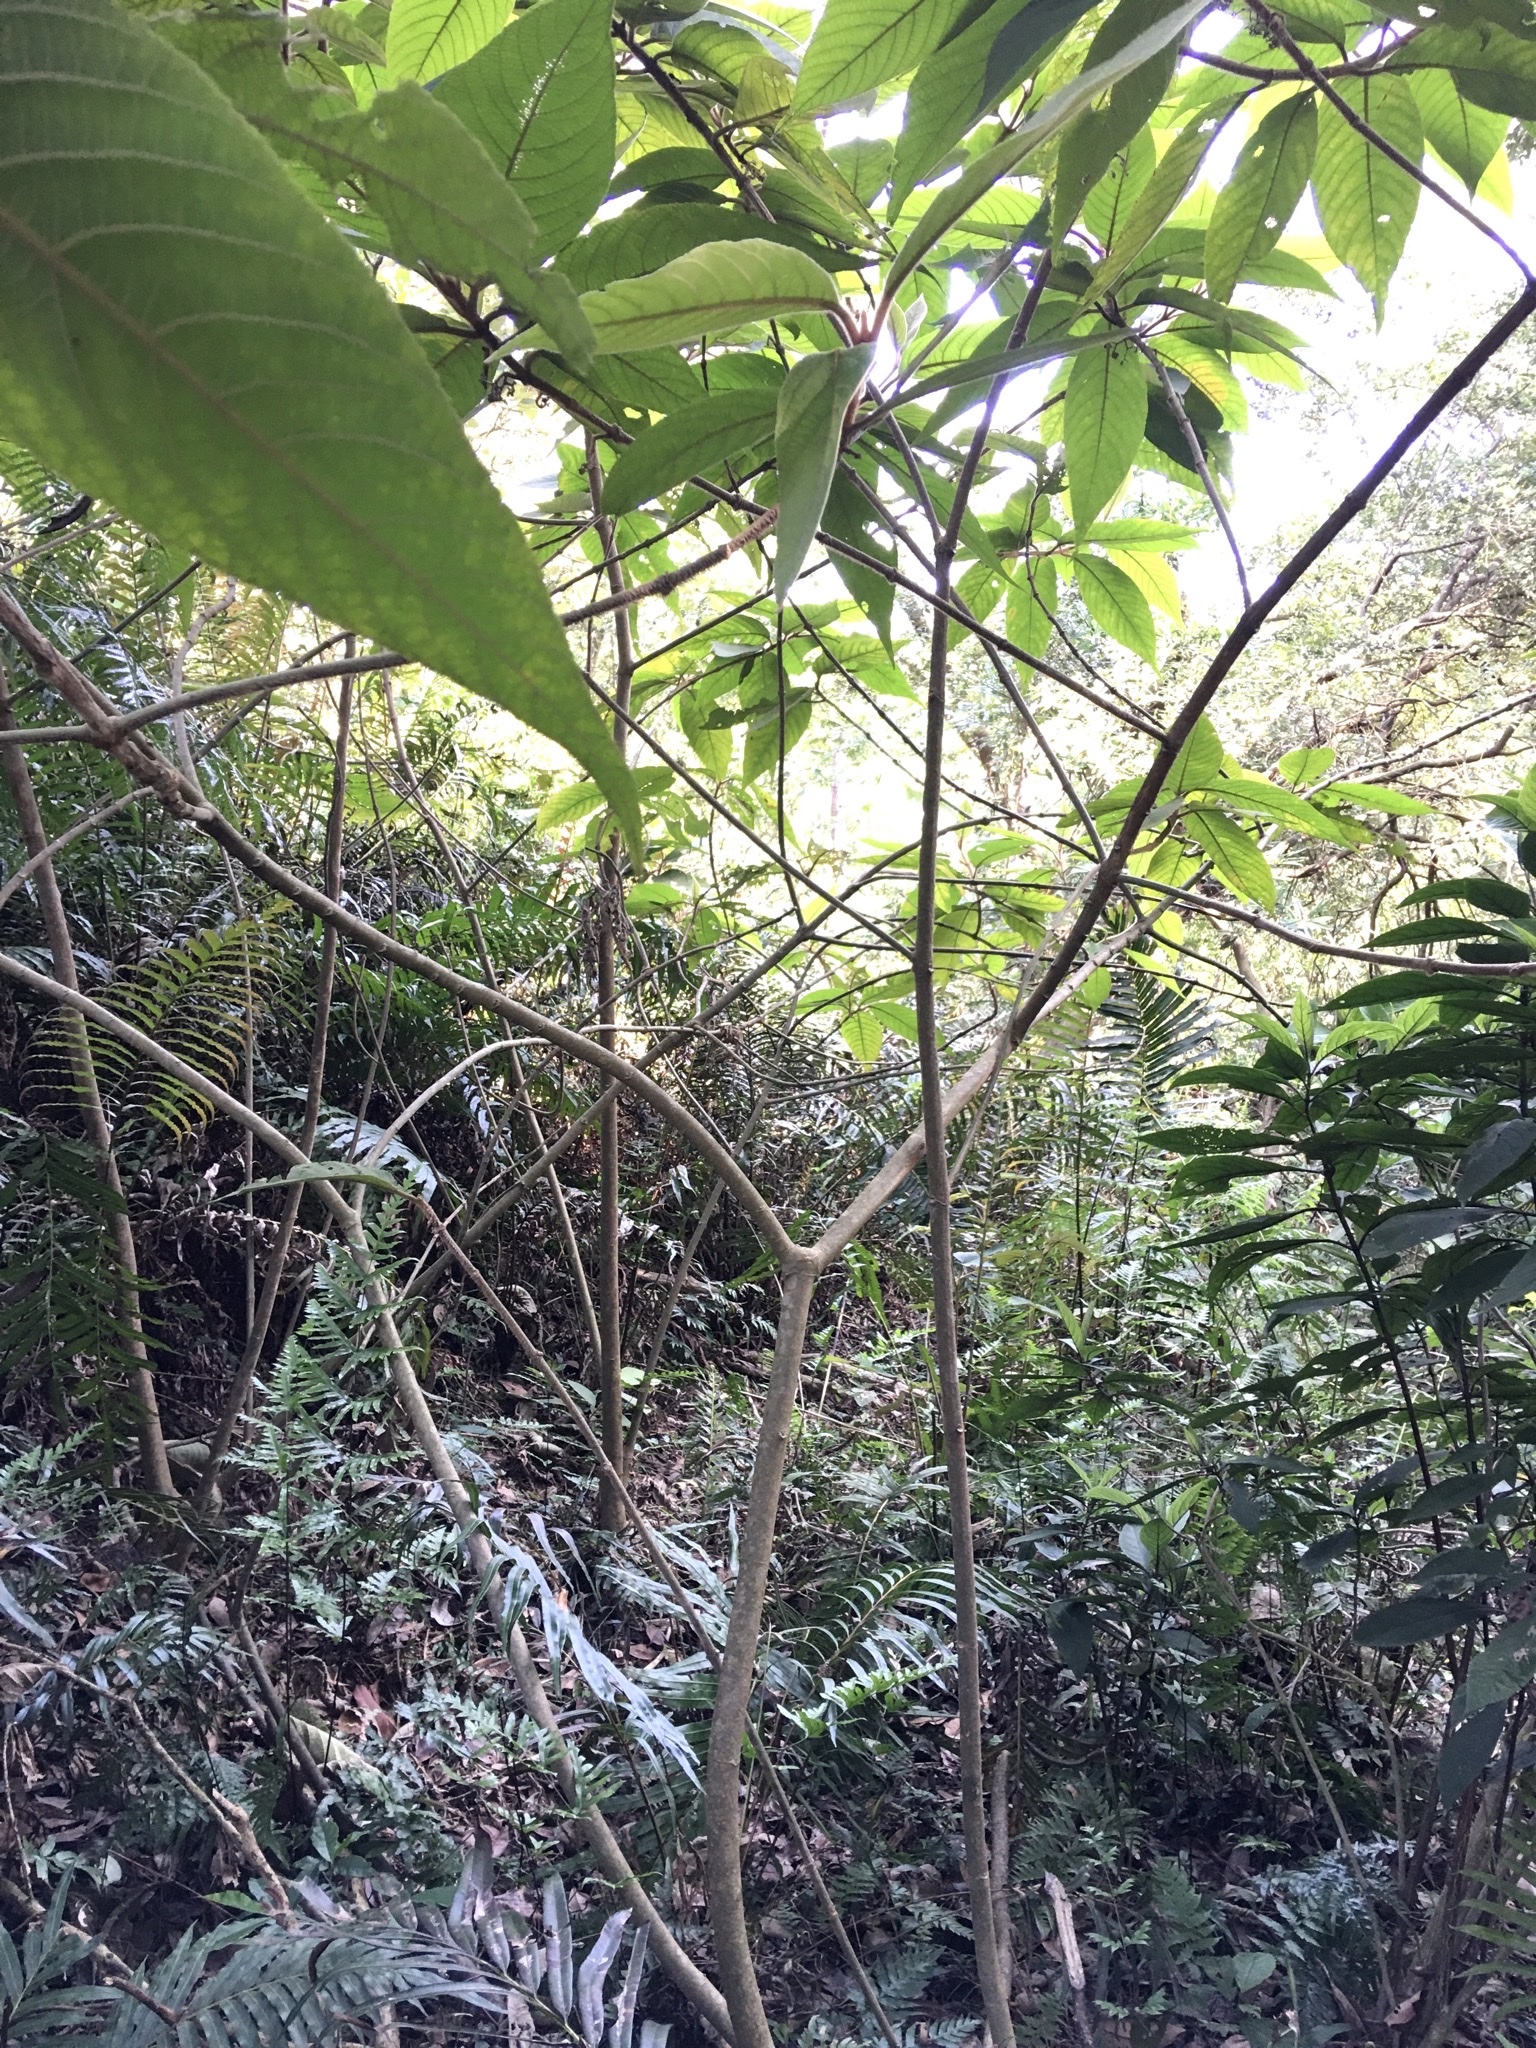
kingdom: Plantae
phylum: Tracheophyta
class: Magnoliopsida
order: Lamiales
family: Lamiaceae
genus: Callicarpa
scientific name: Callicarpa kochiana
